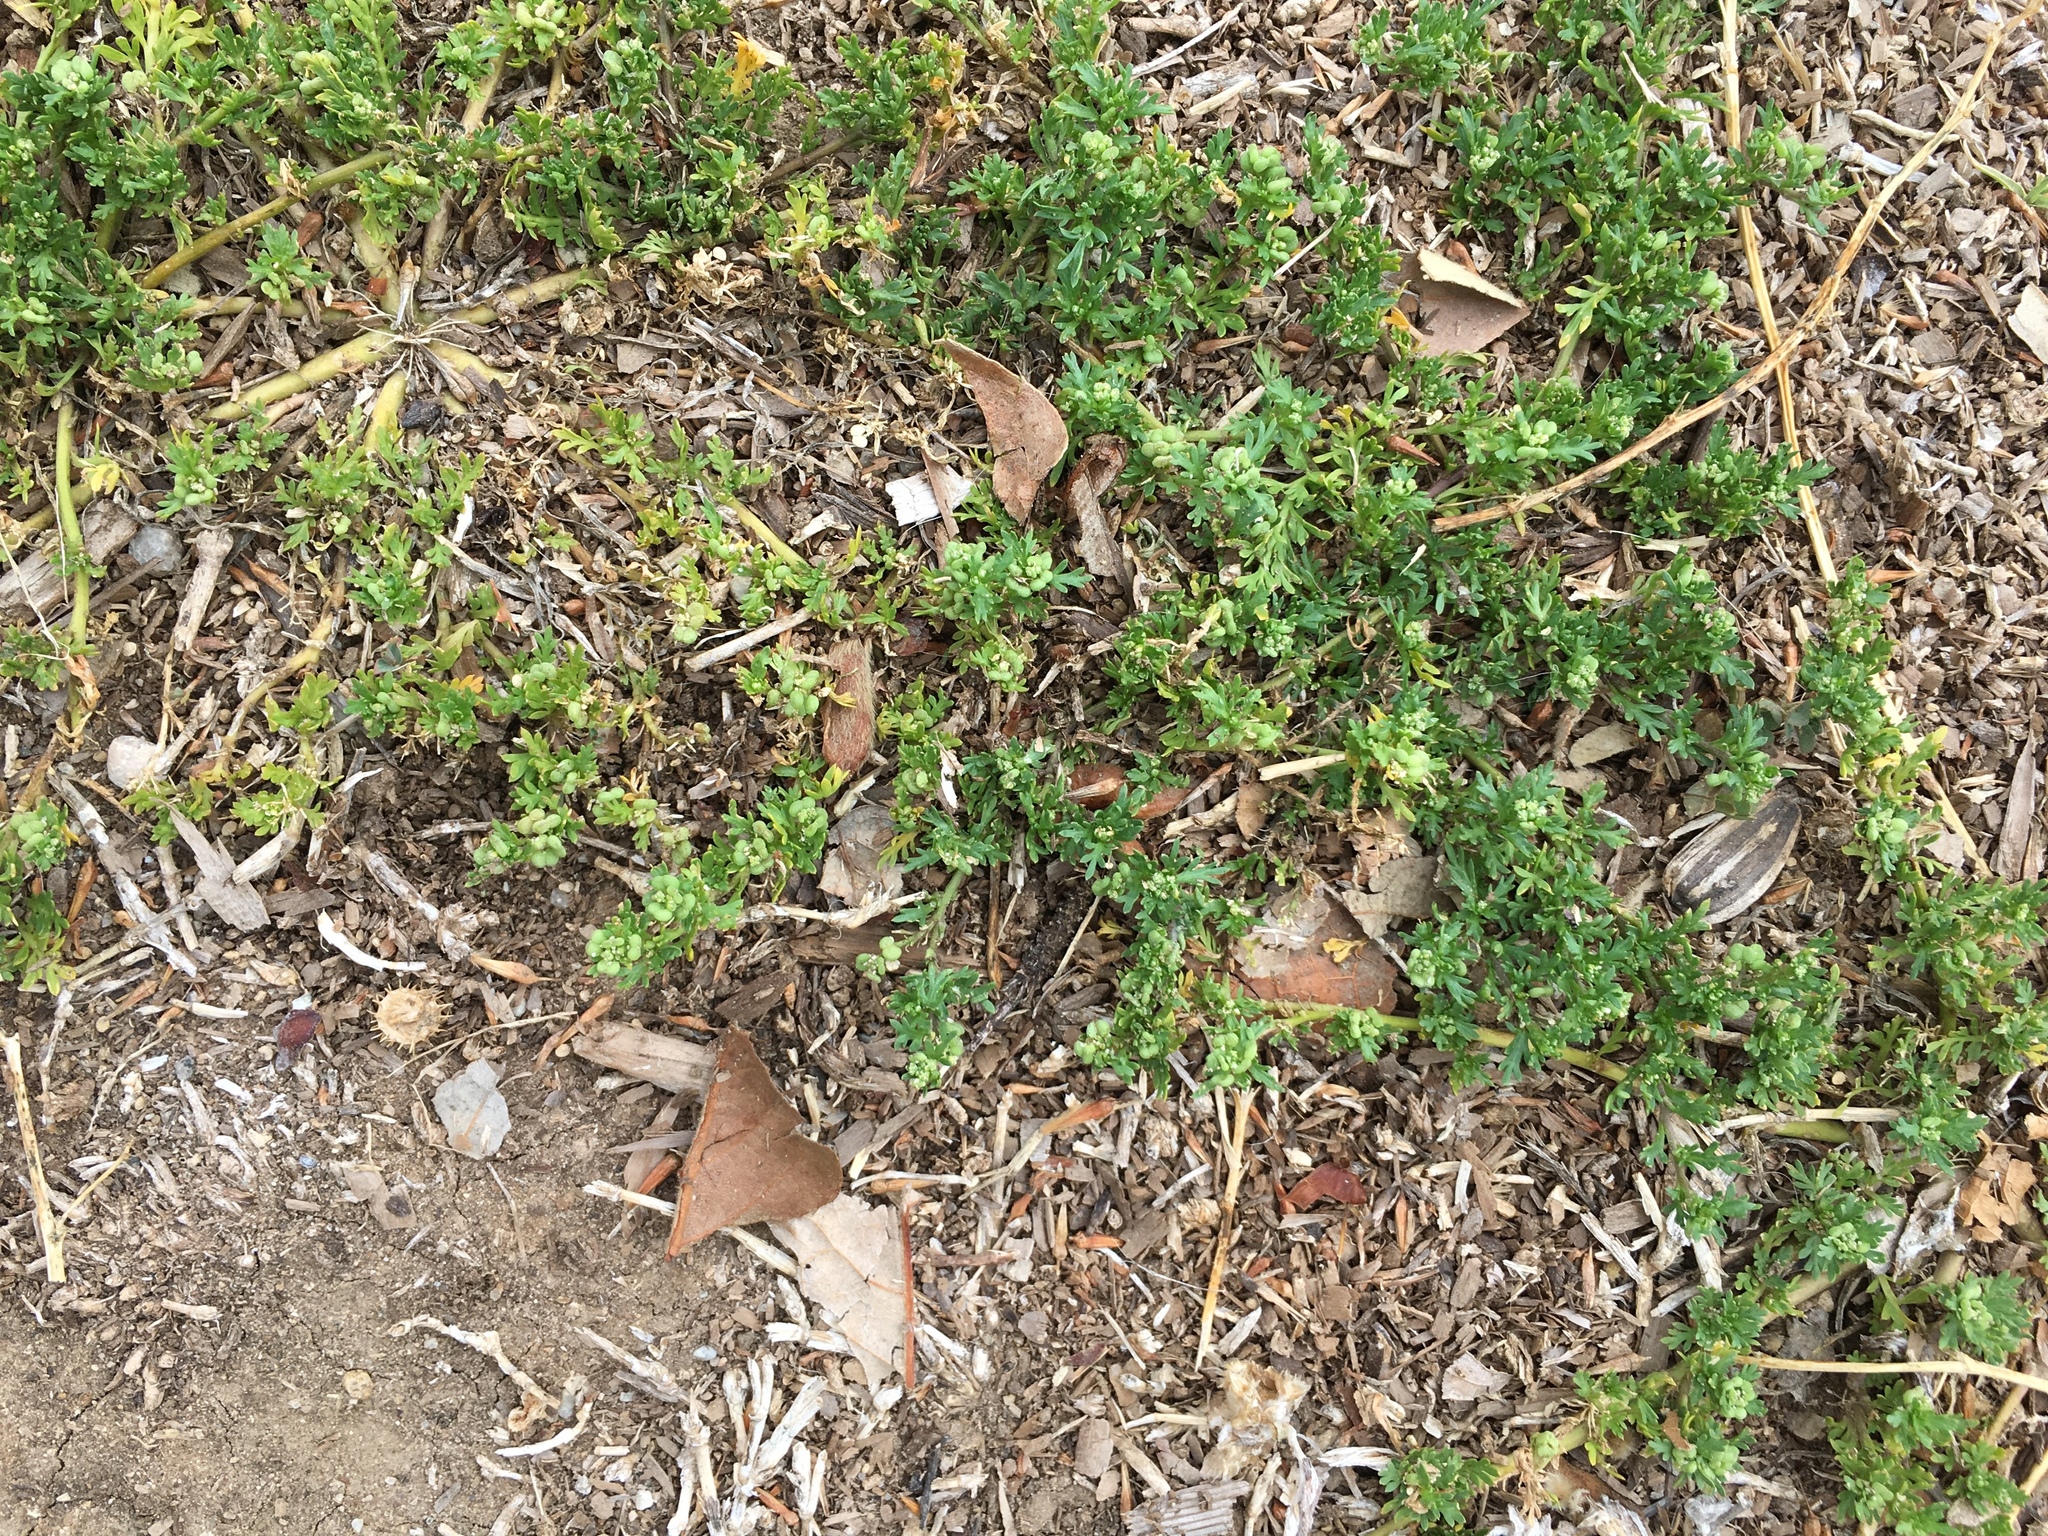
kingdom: Plantae
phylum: Tracheophyta
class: Magnoliopsida
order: Brassicales
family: Brassicaceae
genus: Lepidium
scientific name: Lepidium didymum
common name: Lesser swinecress
